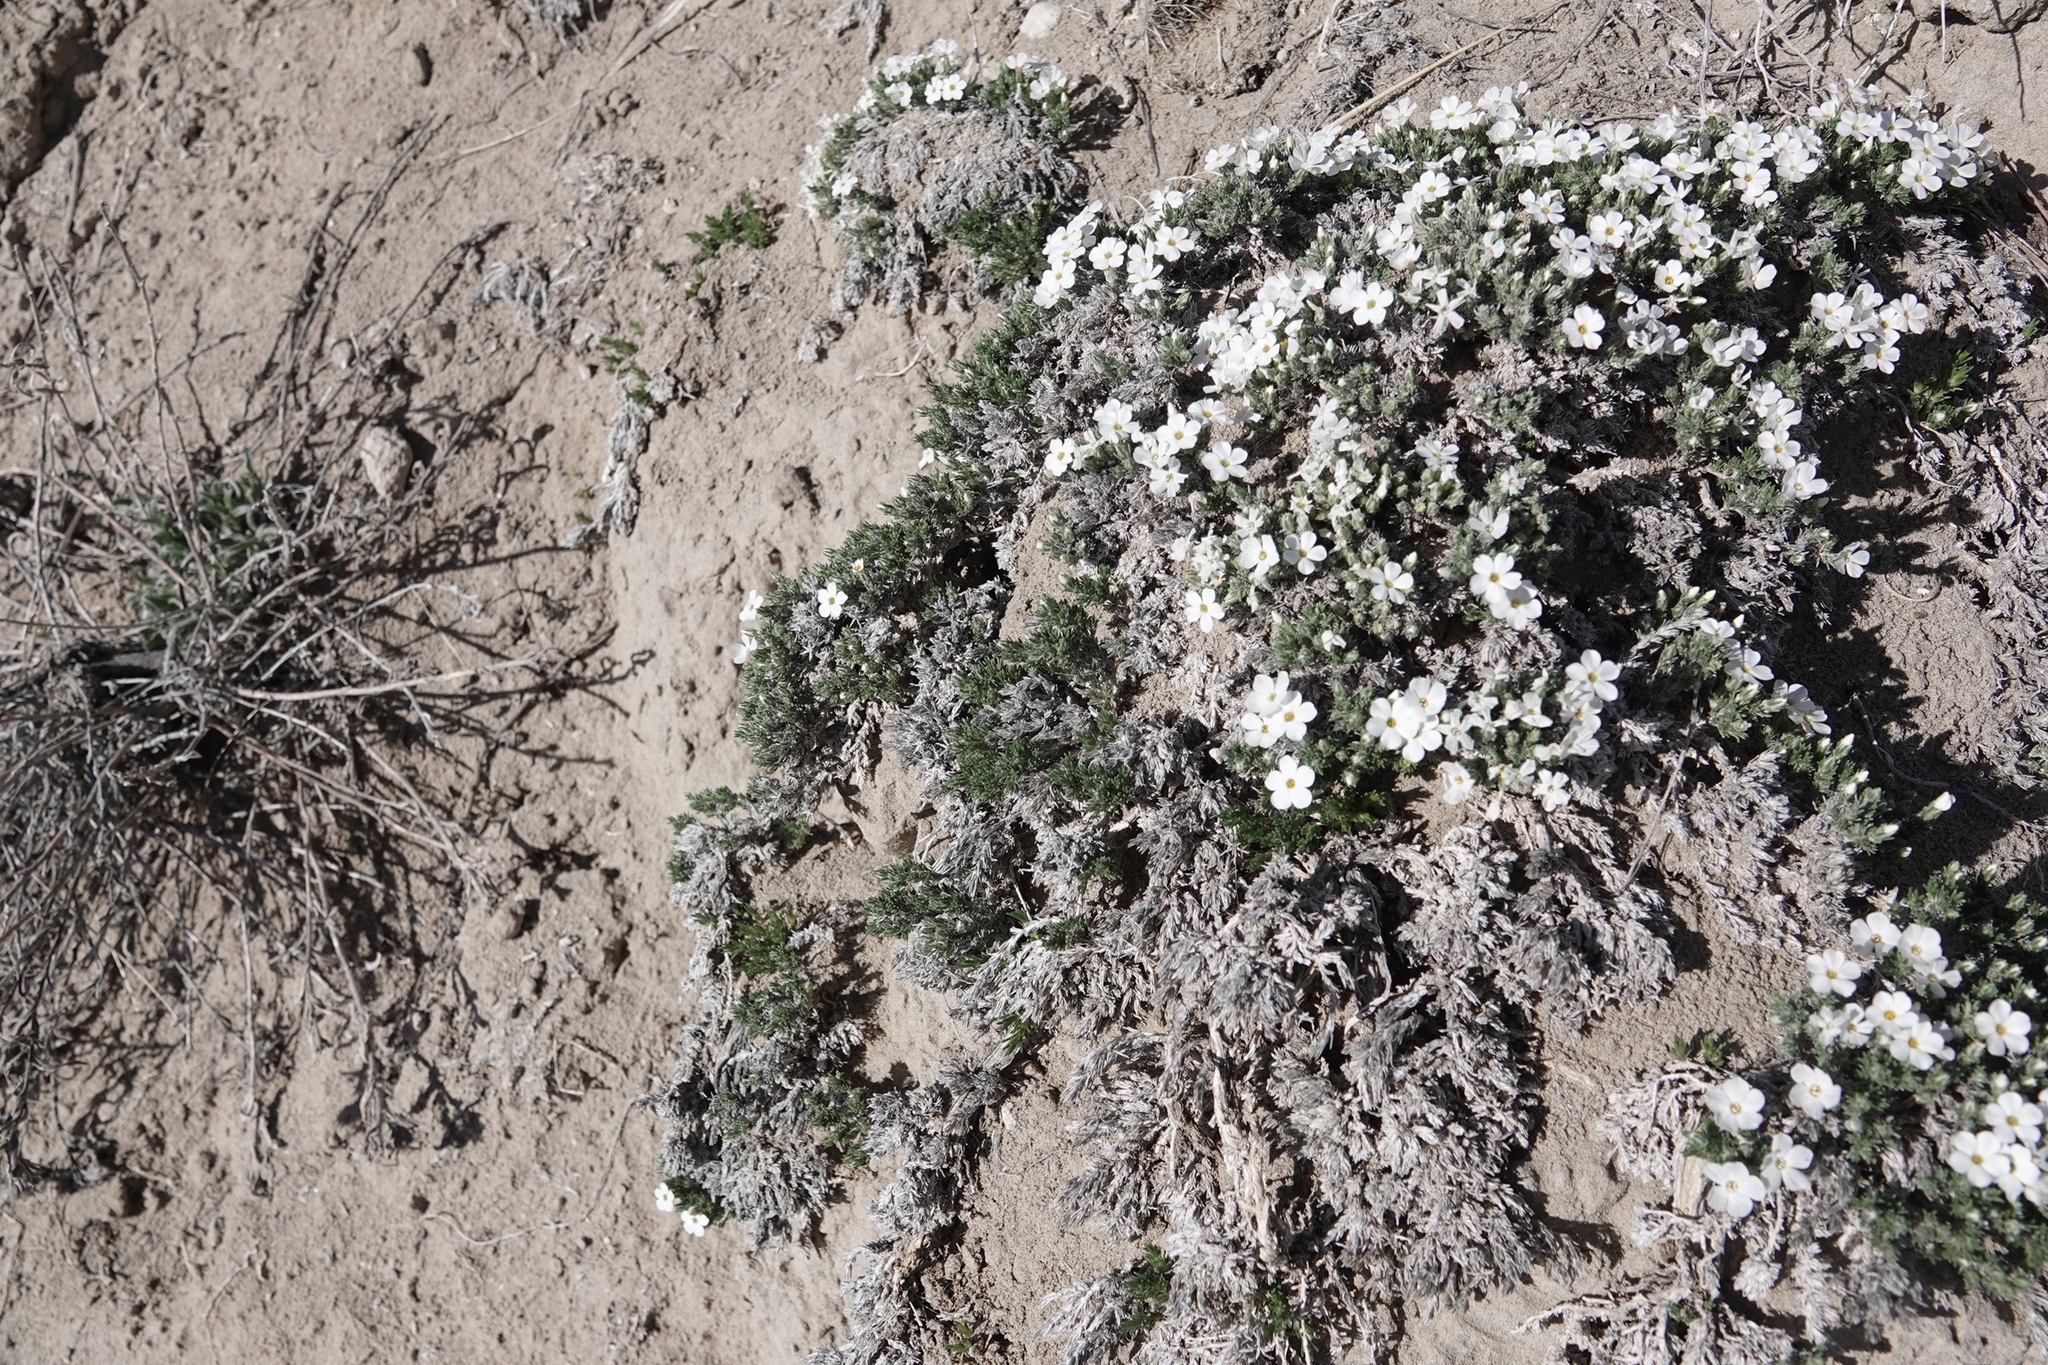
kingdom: Plantae
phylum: Tracheophyta
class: Magnoliopsida
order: Ericales
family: Polemoniaceae
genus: Phlox
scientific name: Phlox hoodii
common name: Moss phlox
